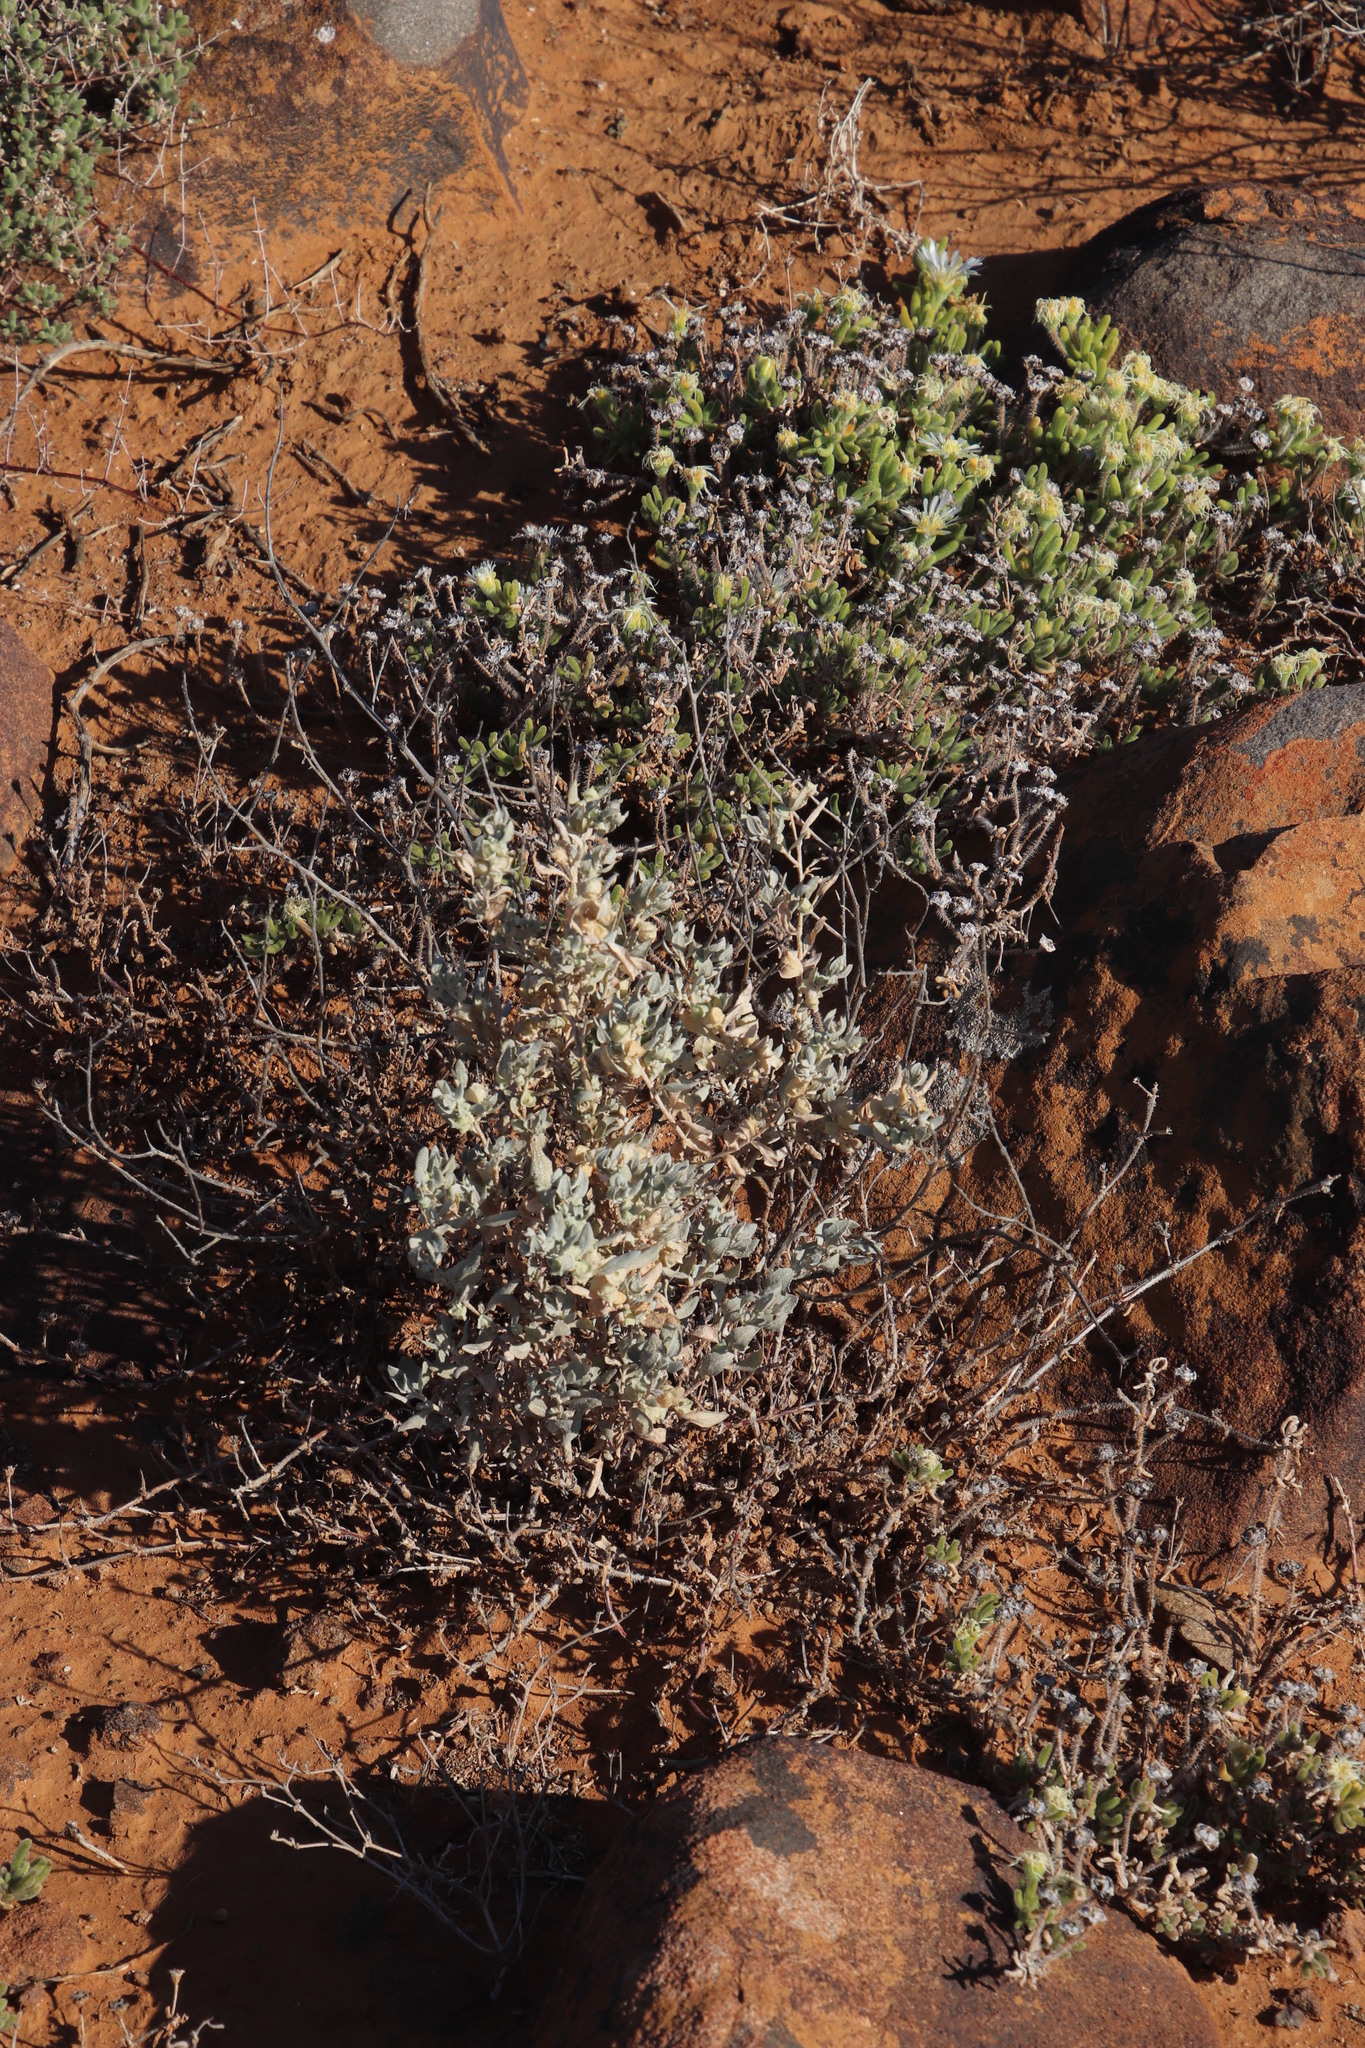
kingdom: Plantae
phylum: Tracheophyta
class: Magnoliopsida
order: Caryophyllales
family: Amaranthaceae
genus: Atriplex
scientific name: Atriplex lindleyi
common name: Lindley's saltbush
